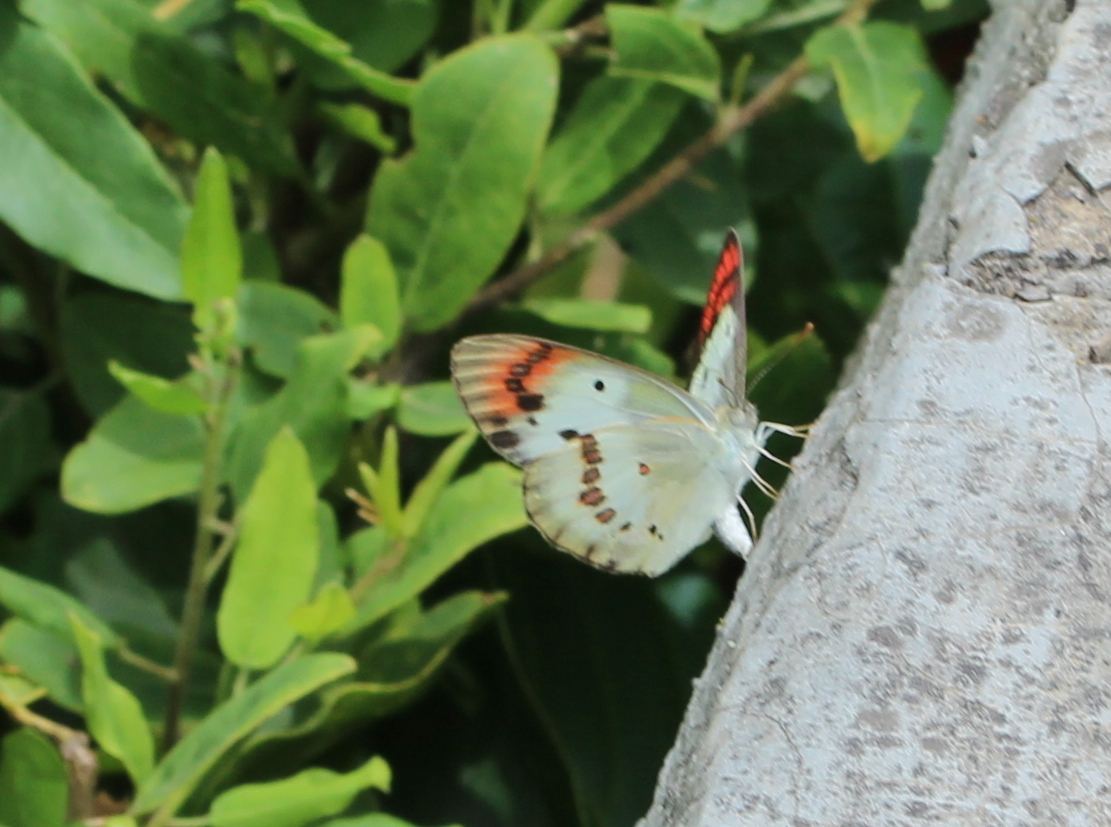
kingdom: Animalia
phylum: Arthropoda
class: Insecta
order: Lepidoptera
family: Pieridae
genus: Colotis
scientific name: Colotis danae
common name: Crimson tip
